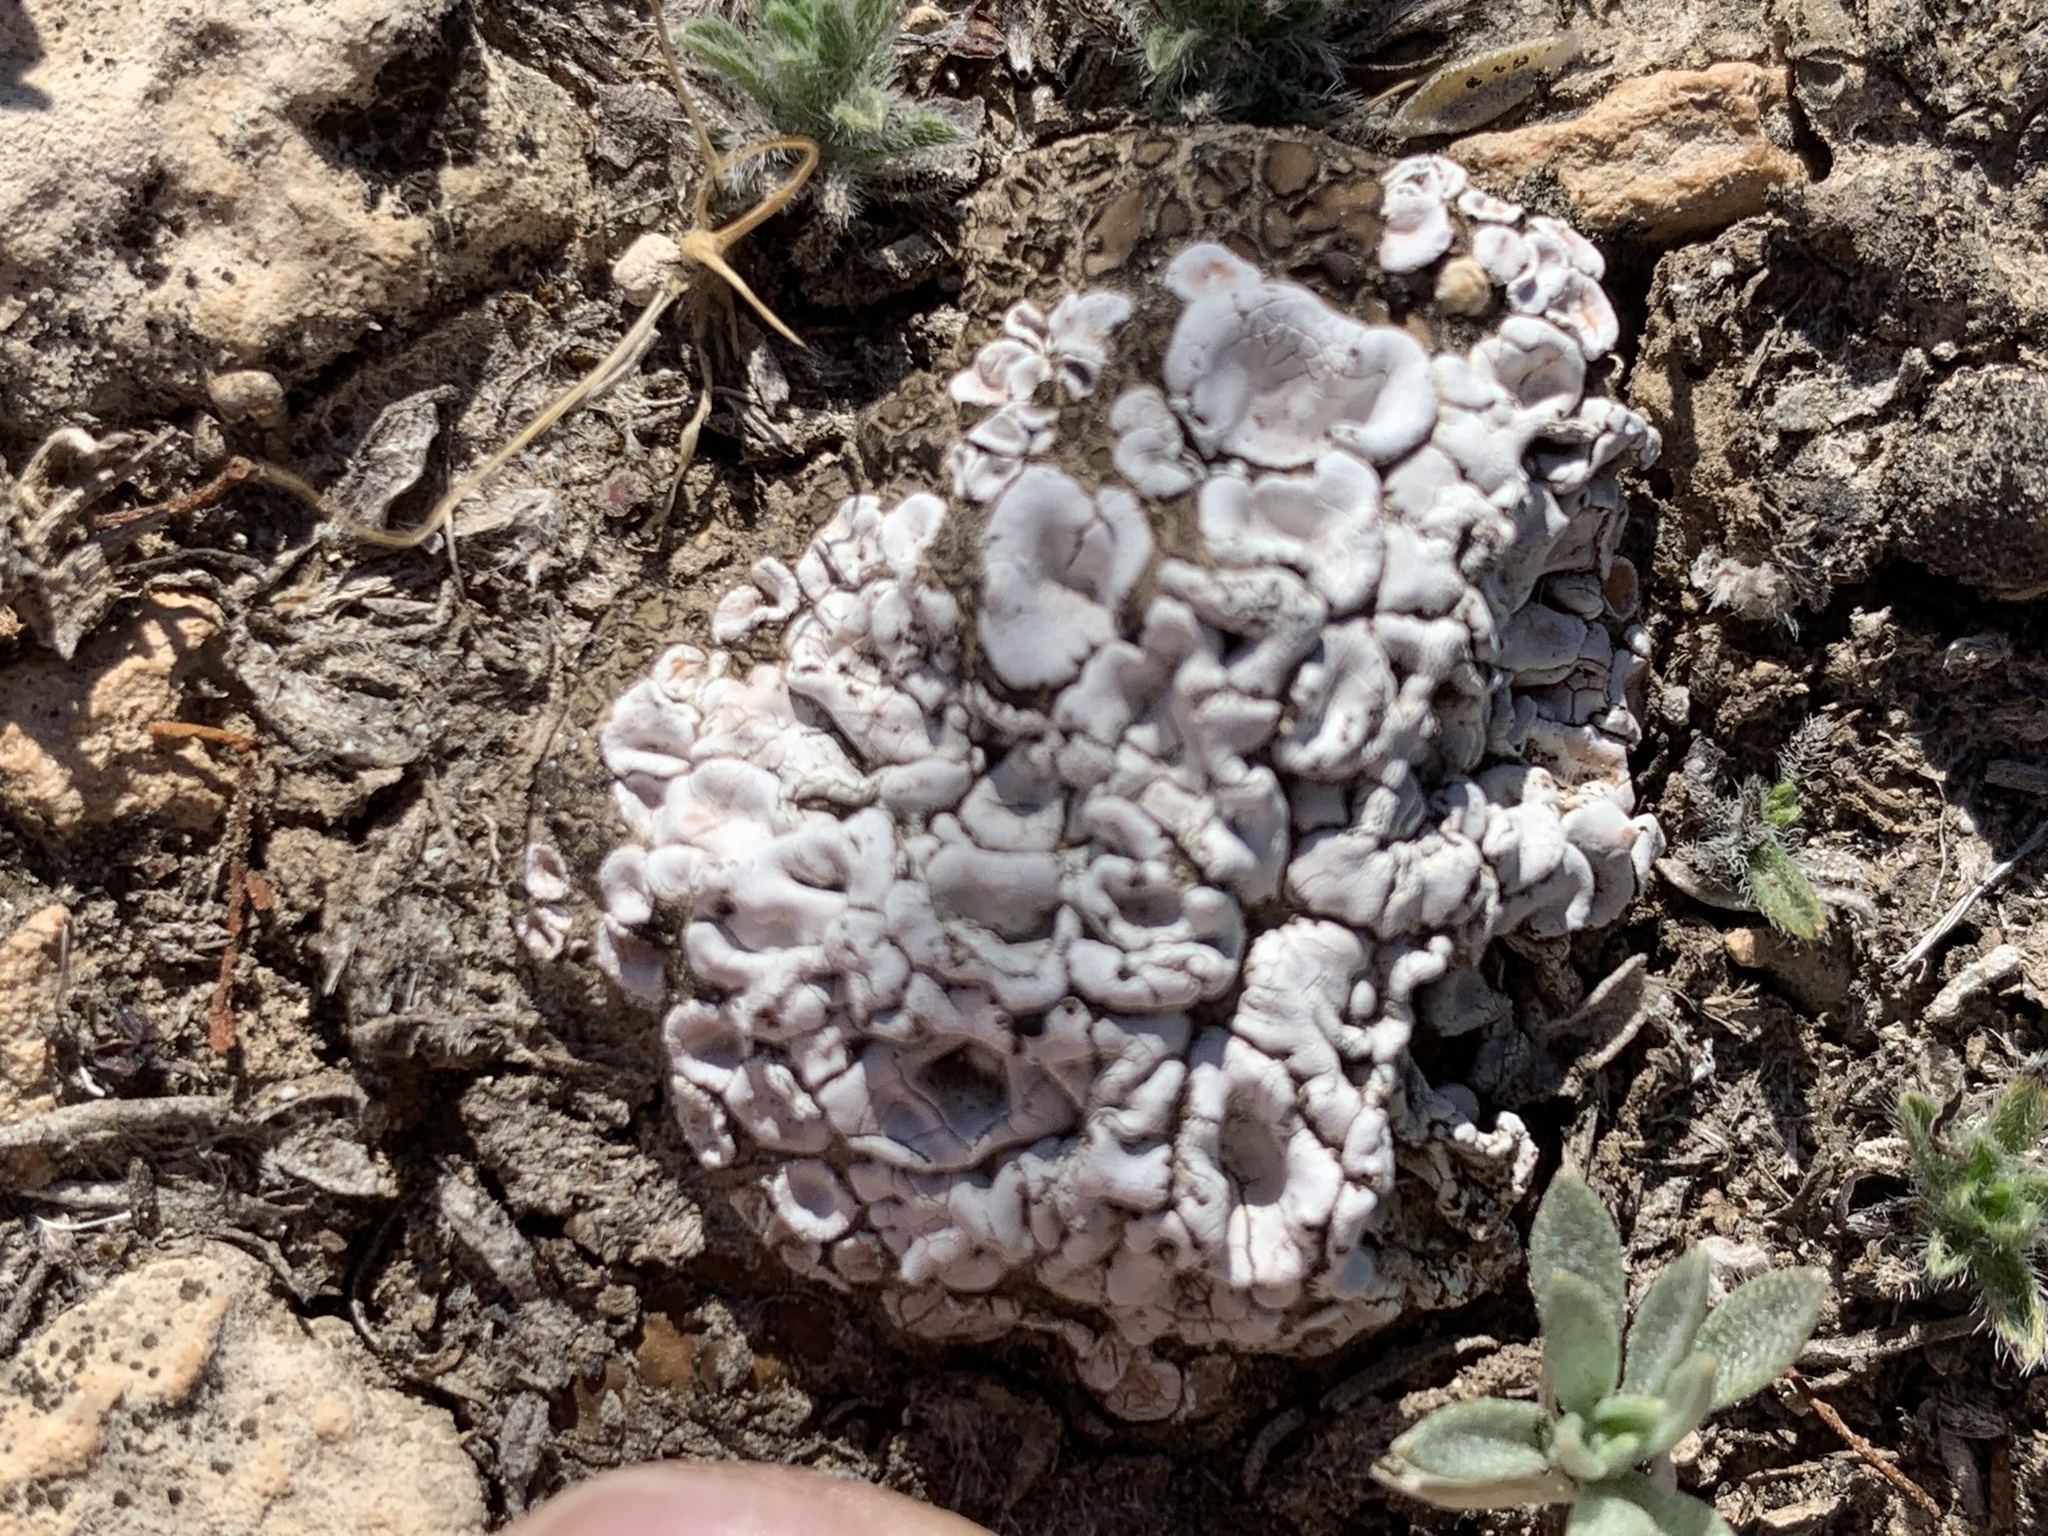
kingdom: Fungi
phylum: Ascomycota
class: Lecanoromycetes
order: Lecanorales
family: Psoraceae
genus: Psora
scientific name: Psora crenata
